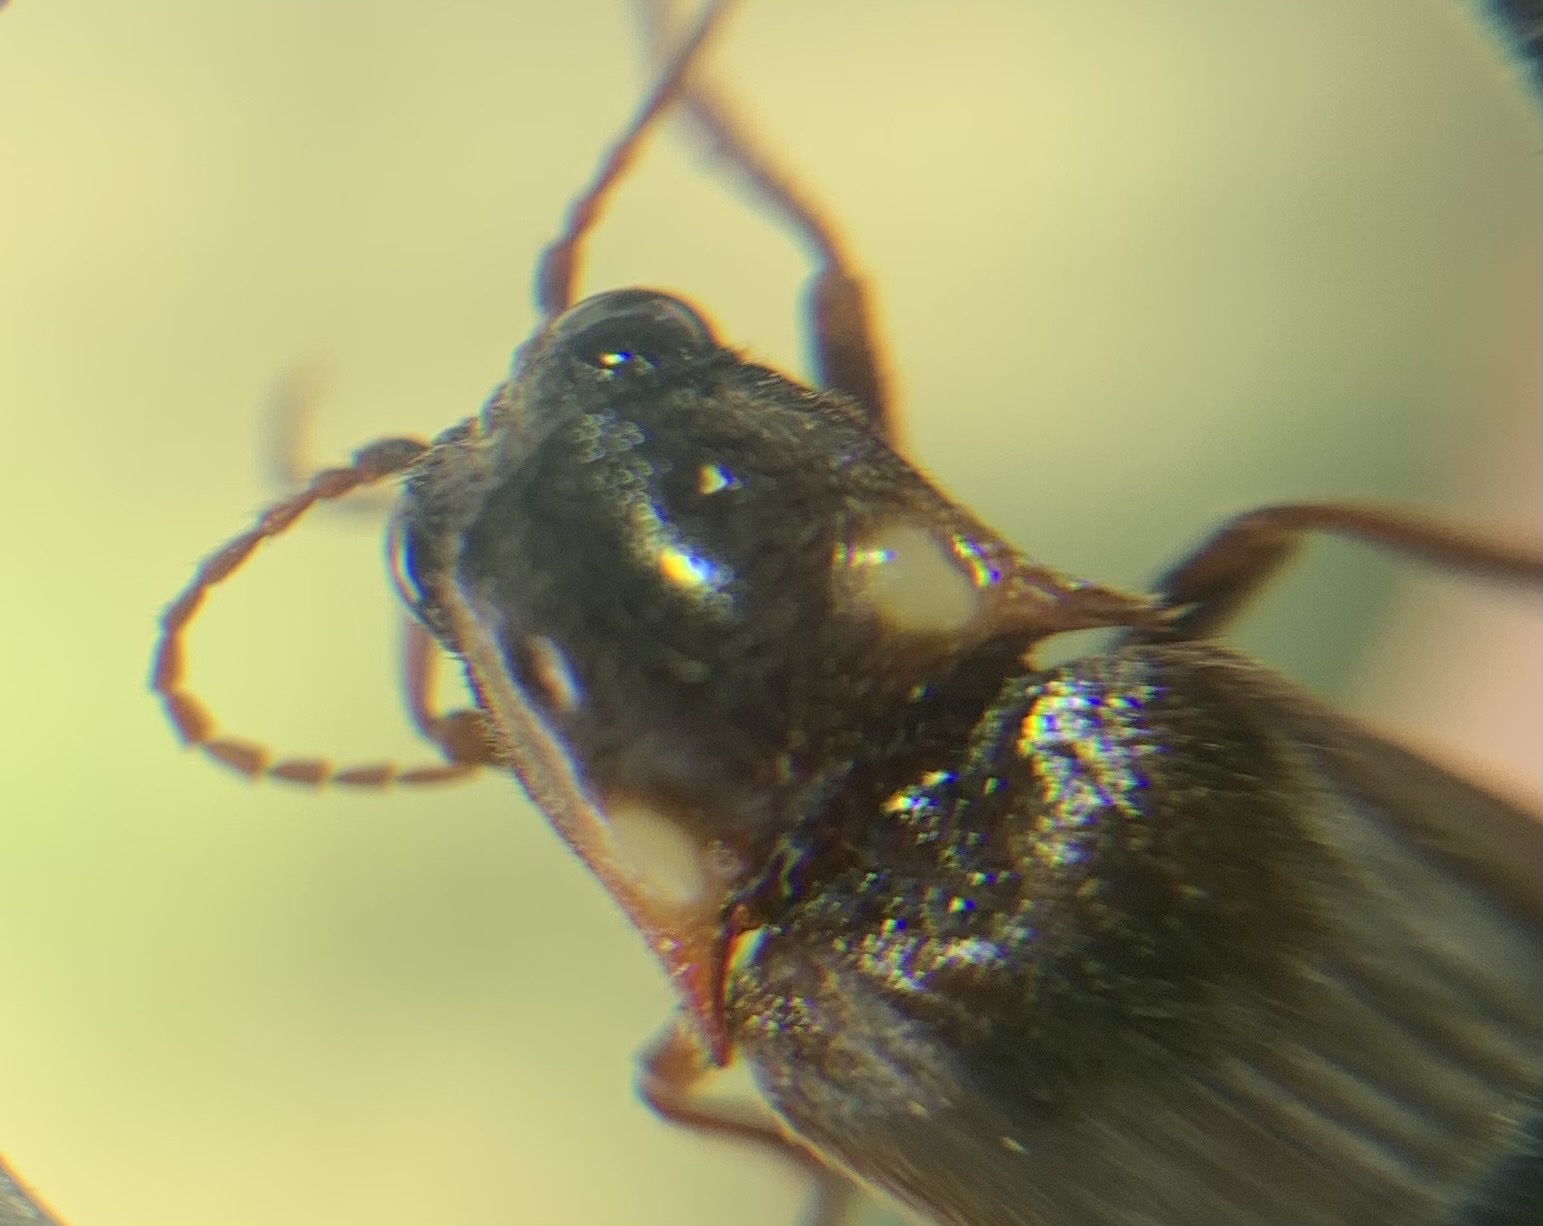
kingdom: Animalia
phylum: Arthropoda
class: Insecta
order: Coleoptera
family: Elateridae
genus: Phanophorus
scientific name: Phanophorus
